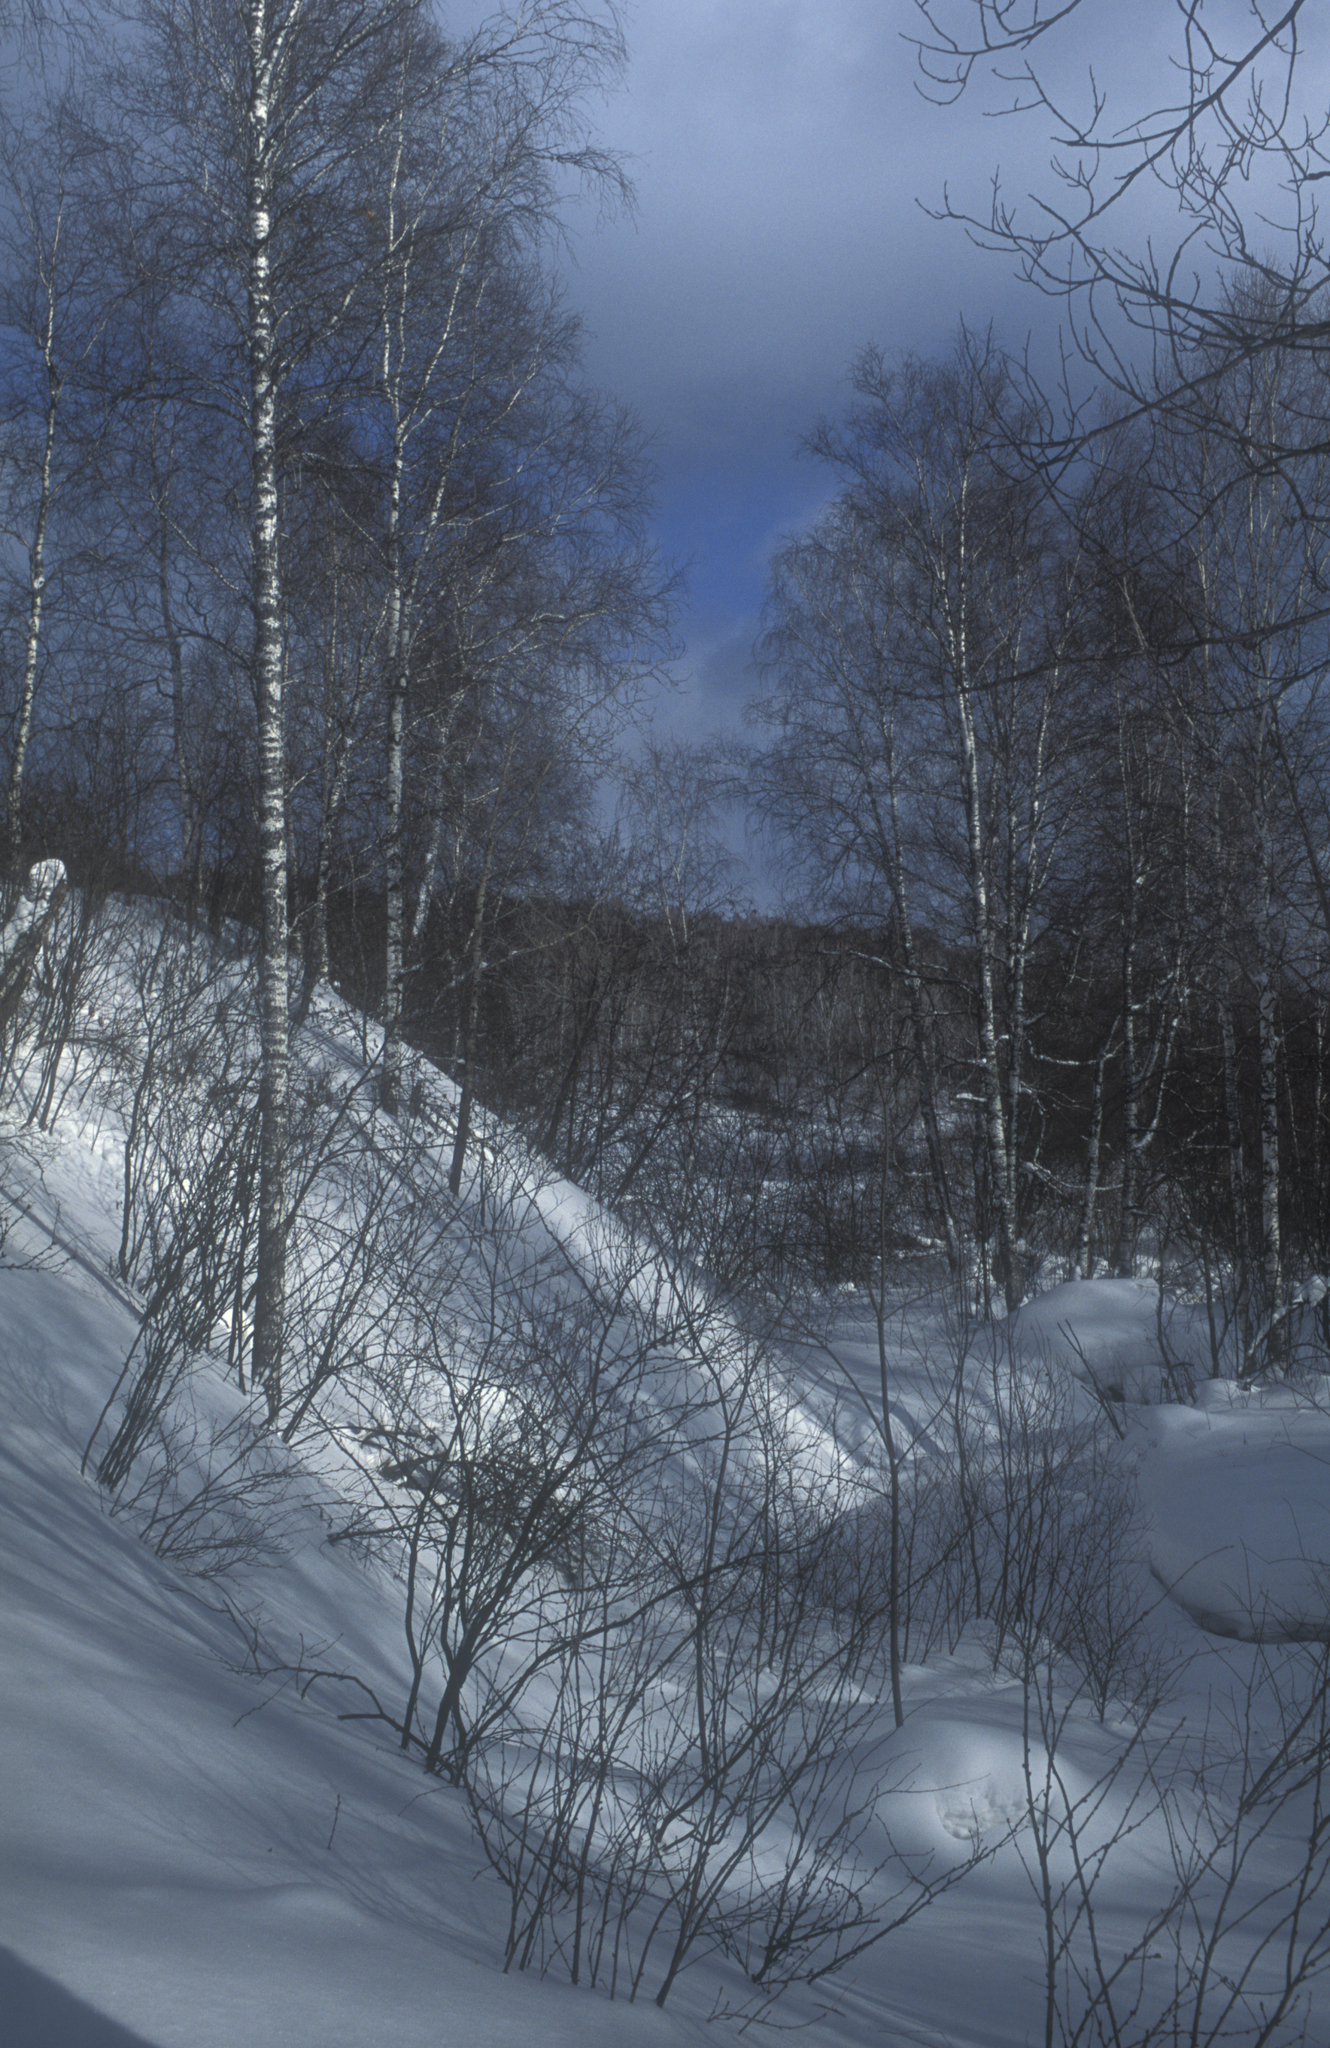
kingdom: Plantae
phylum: Tracheophyta
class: Magnoliopsida
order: Fagales
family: Betulaceae
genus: Betula
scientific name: Betula pendula
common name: Silver birch
